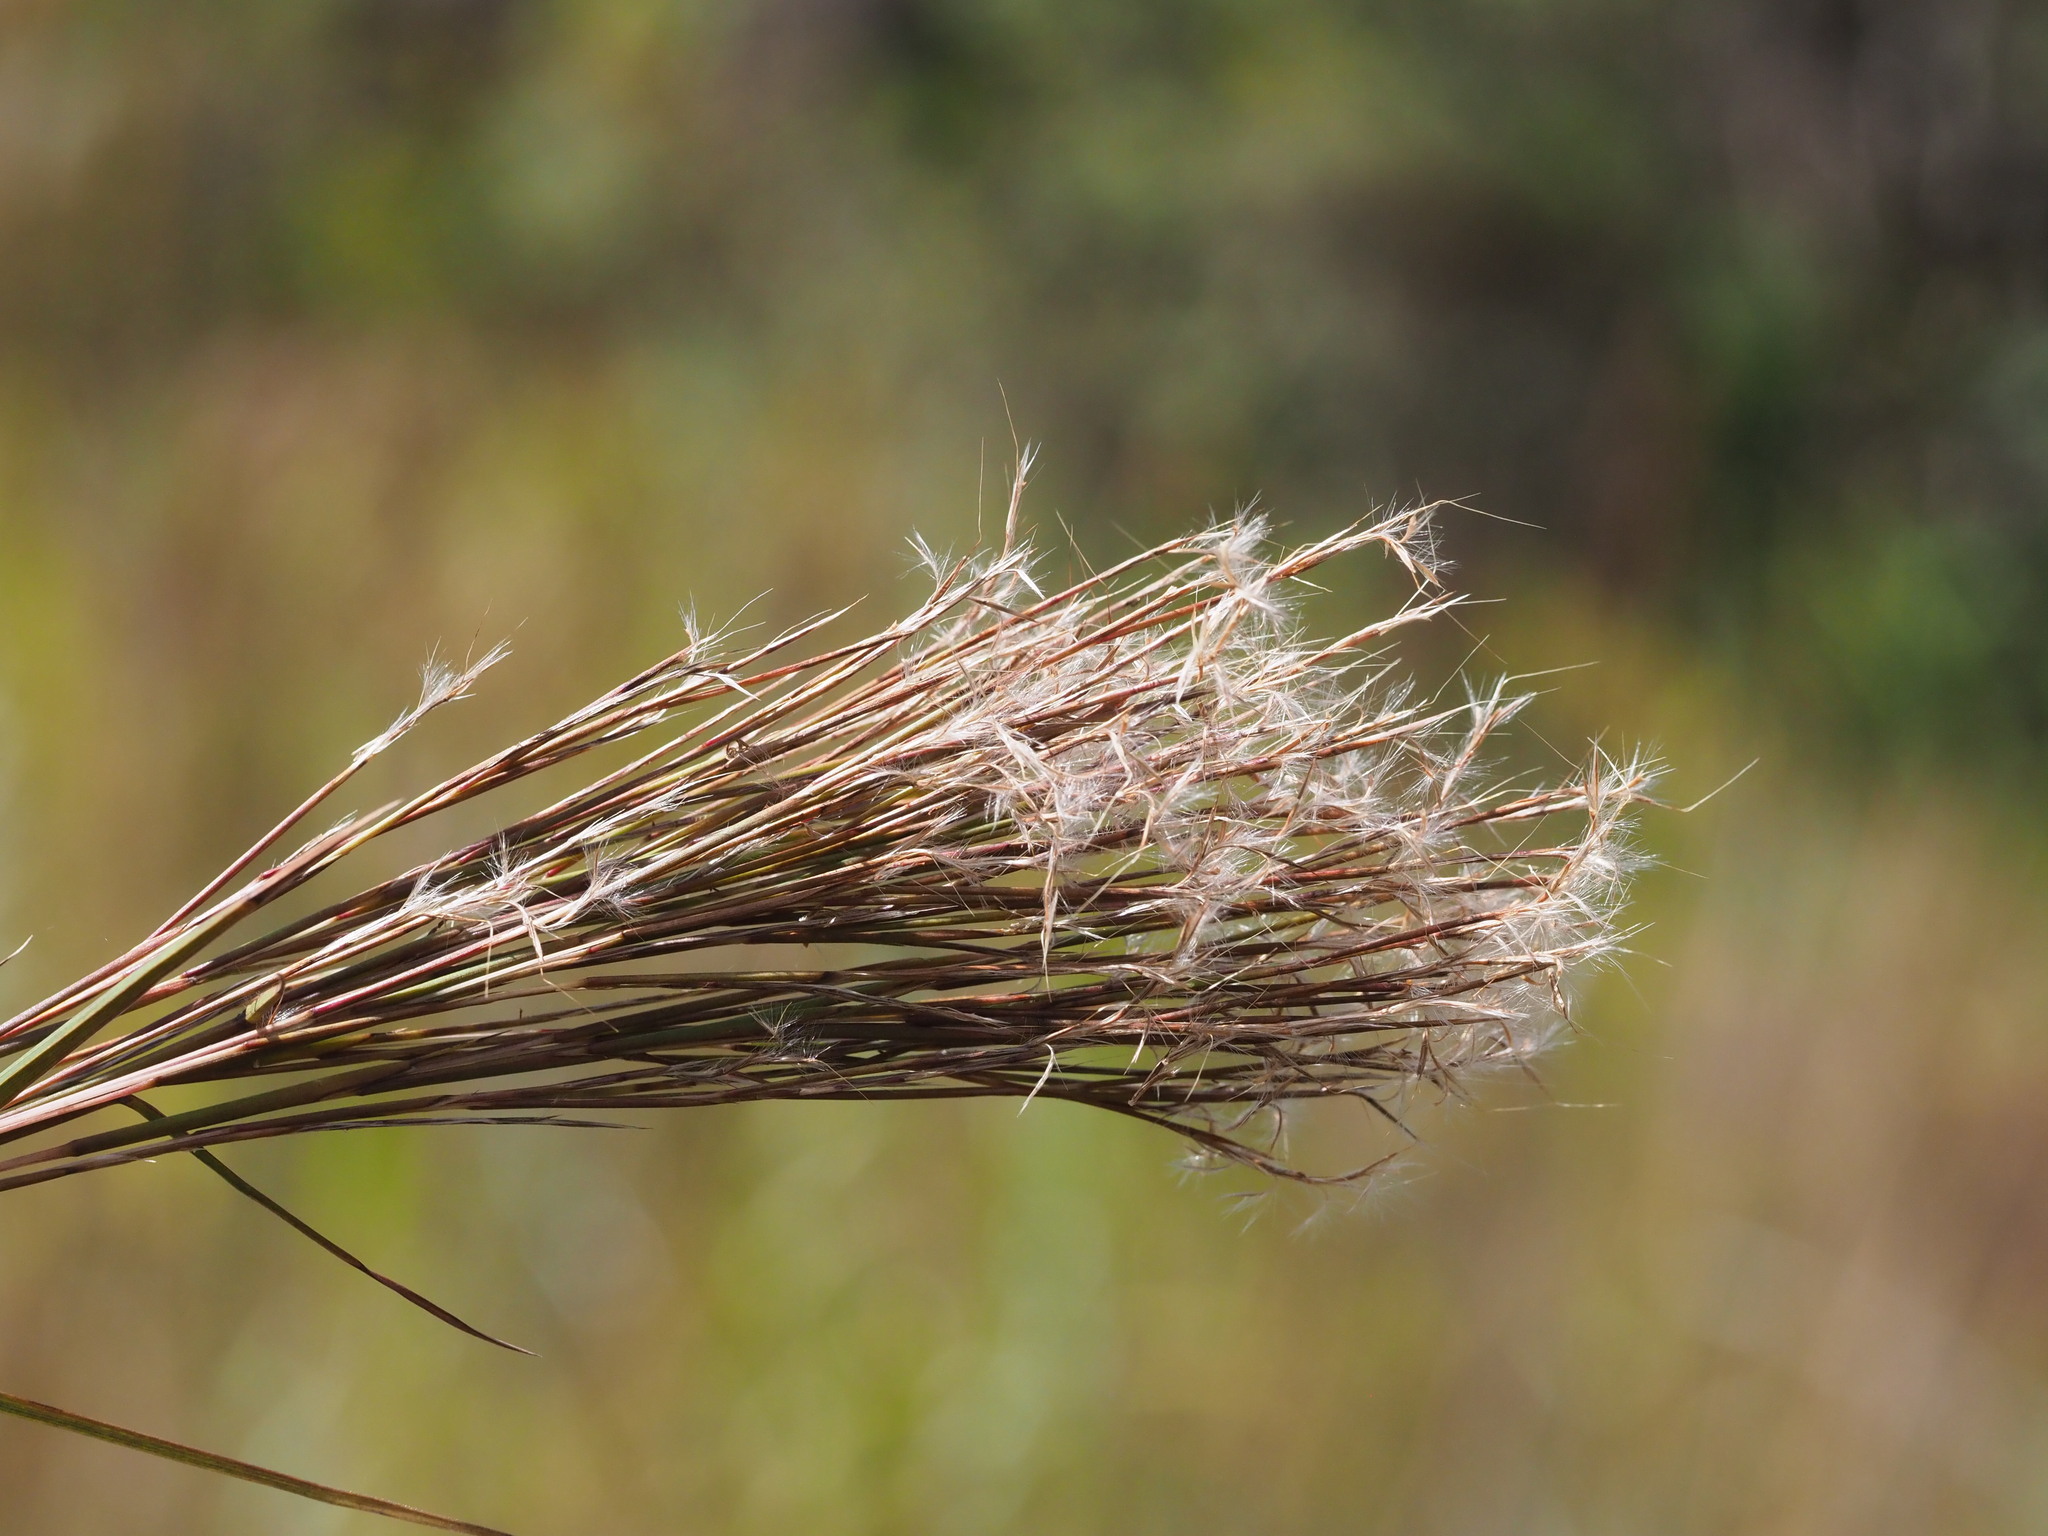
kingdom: Plantae
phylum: Tracheophyta
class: Liliopsida
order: Poales
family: Poaceae
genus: Schizachyrium
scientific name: Schizachyrium microstachyum
